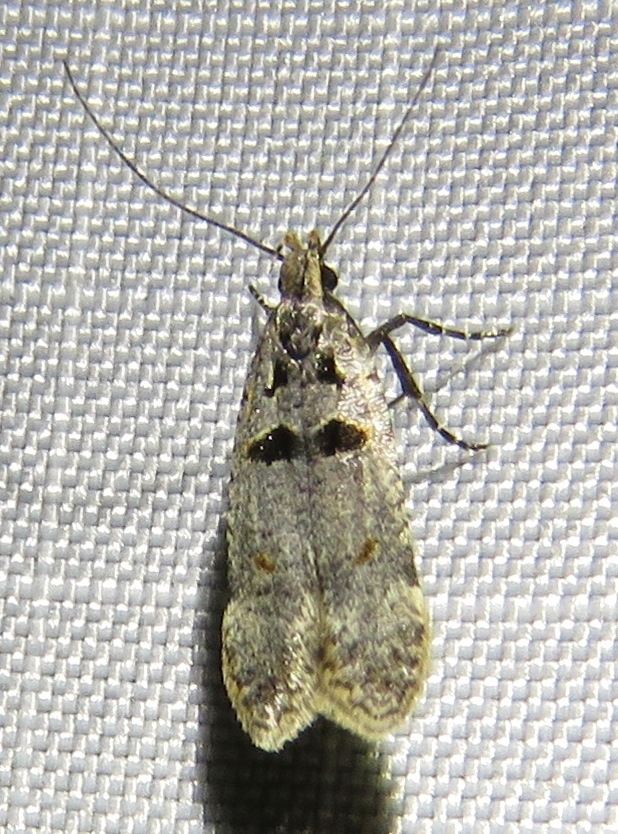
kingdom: Animalia
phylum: Arthropoda
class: Insecta
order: Lepidoptera
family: Gelechiidae
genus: Deltophora
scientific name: Deltophora glandiferella
